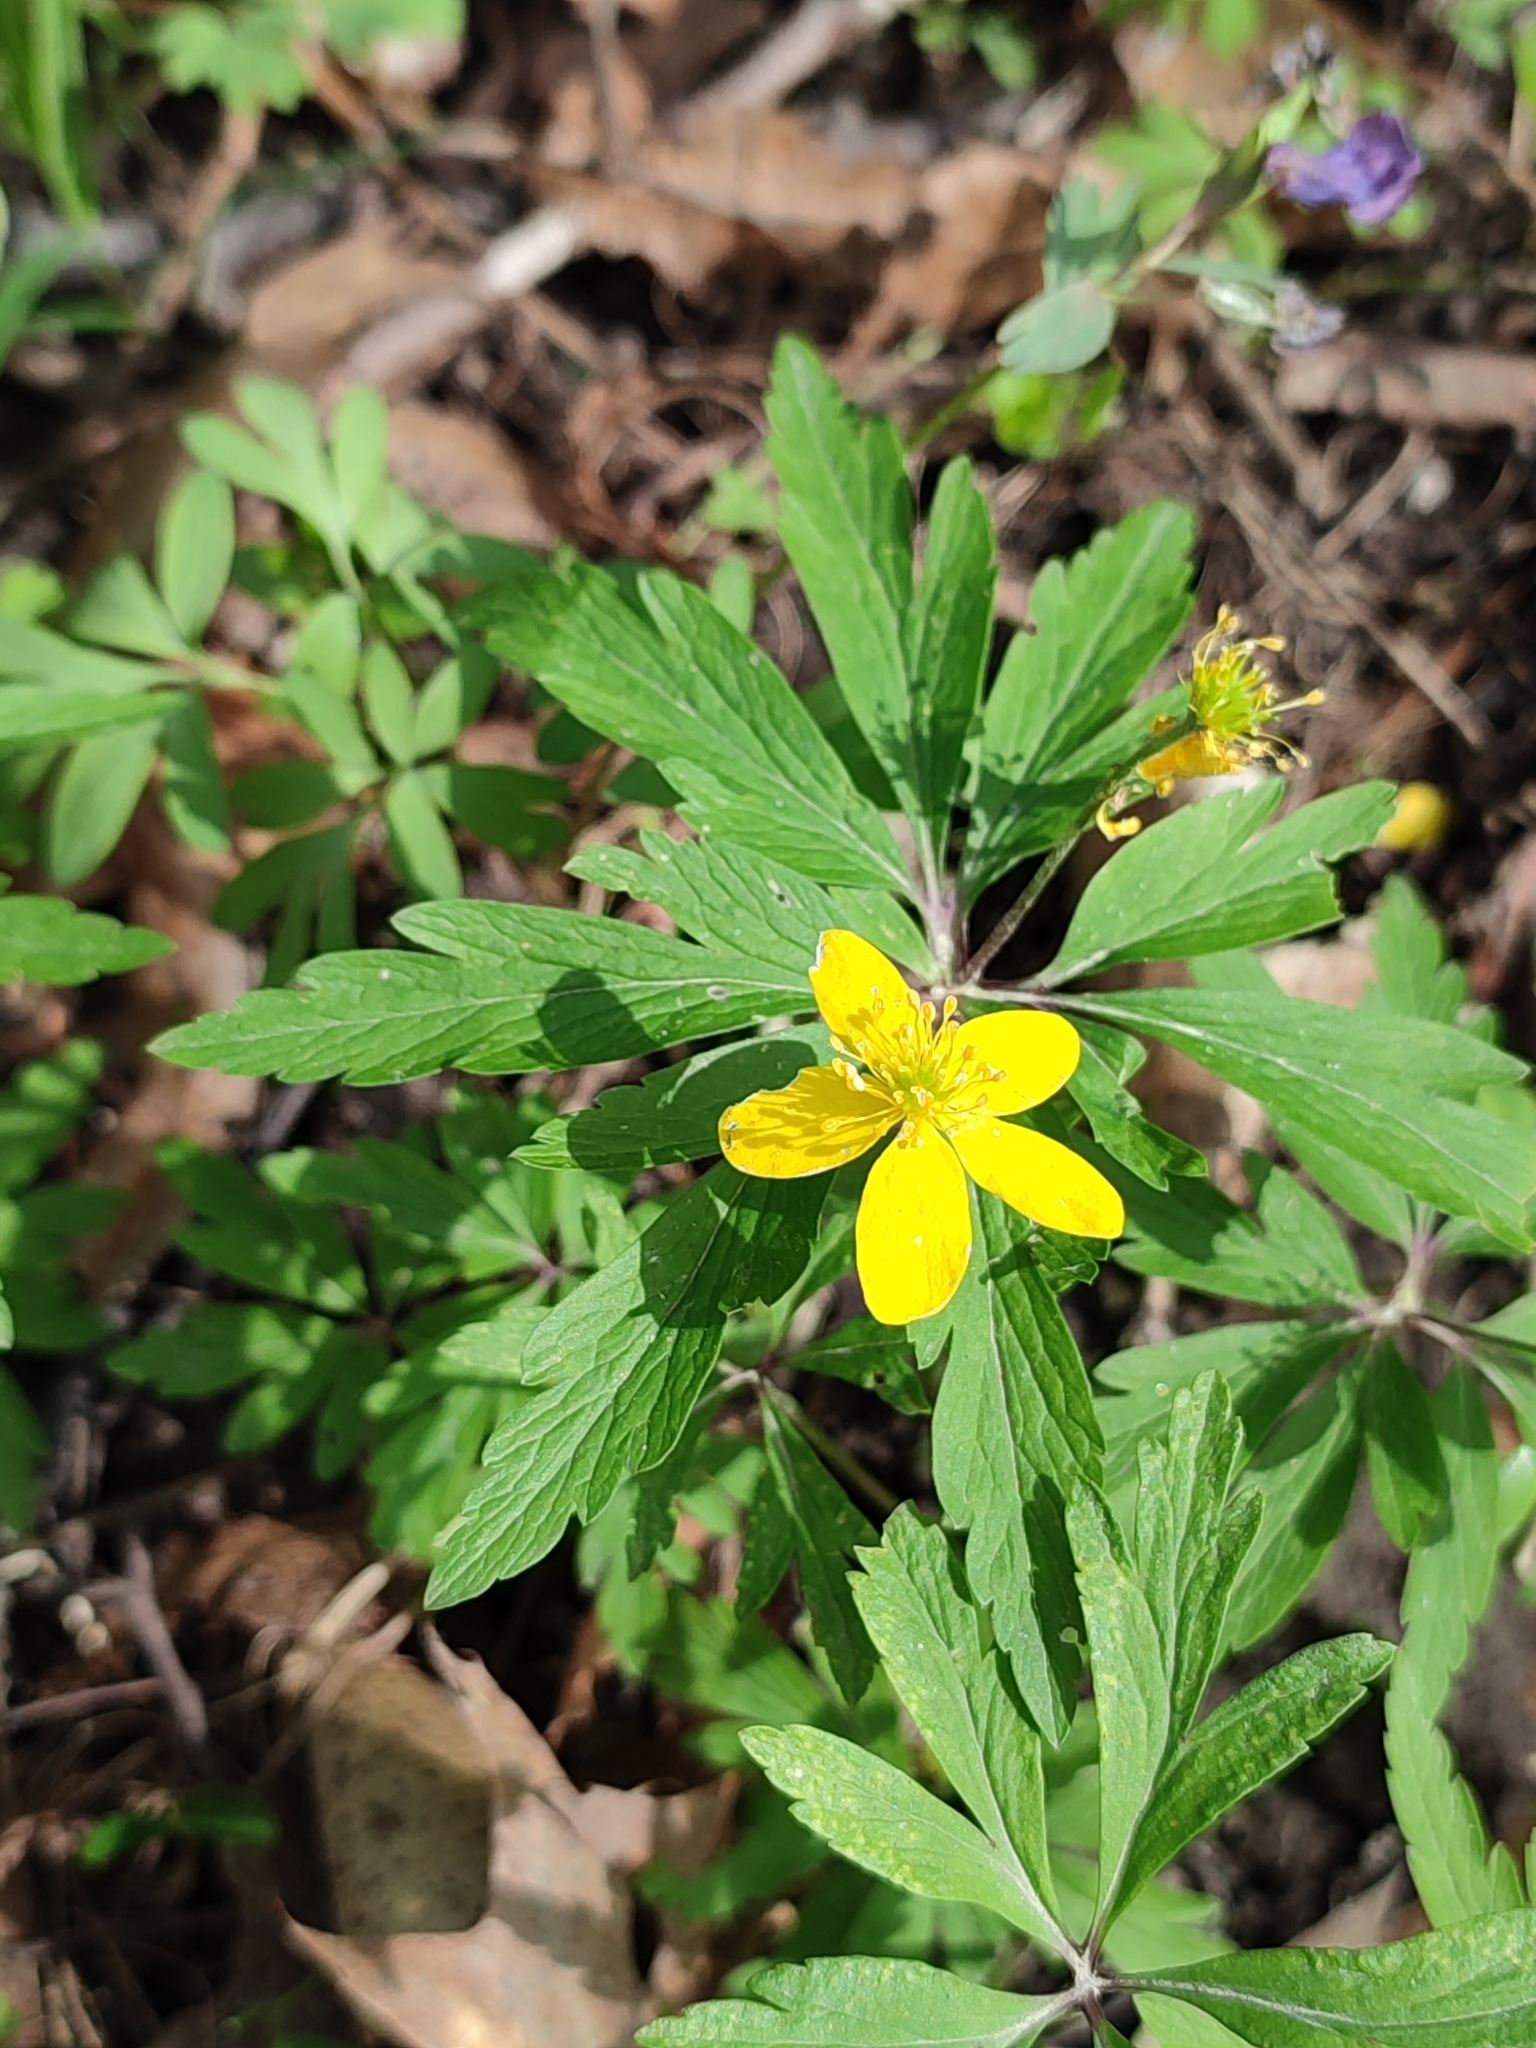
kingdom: Plantae
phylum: Tracheophyta
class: Magnoliopsida
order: Ranunculales
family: Ranunculaceae
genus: Anemone
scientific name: Anemone ranunculoides
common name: Yellow anemone
